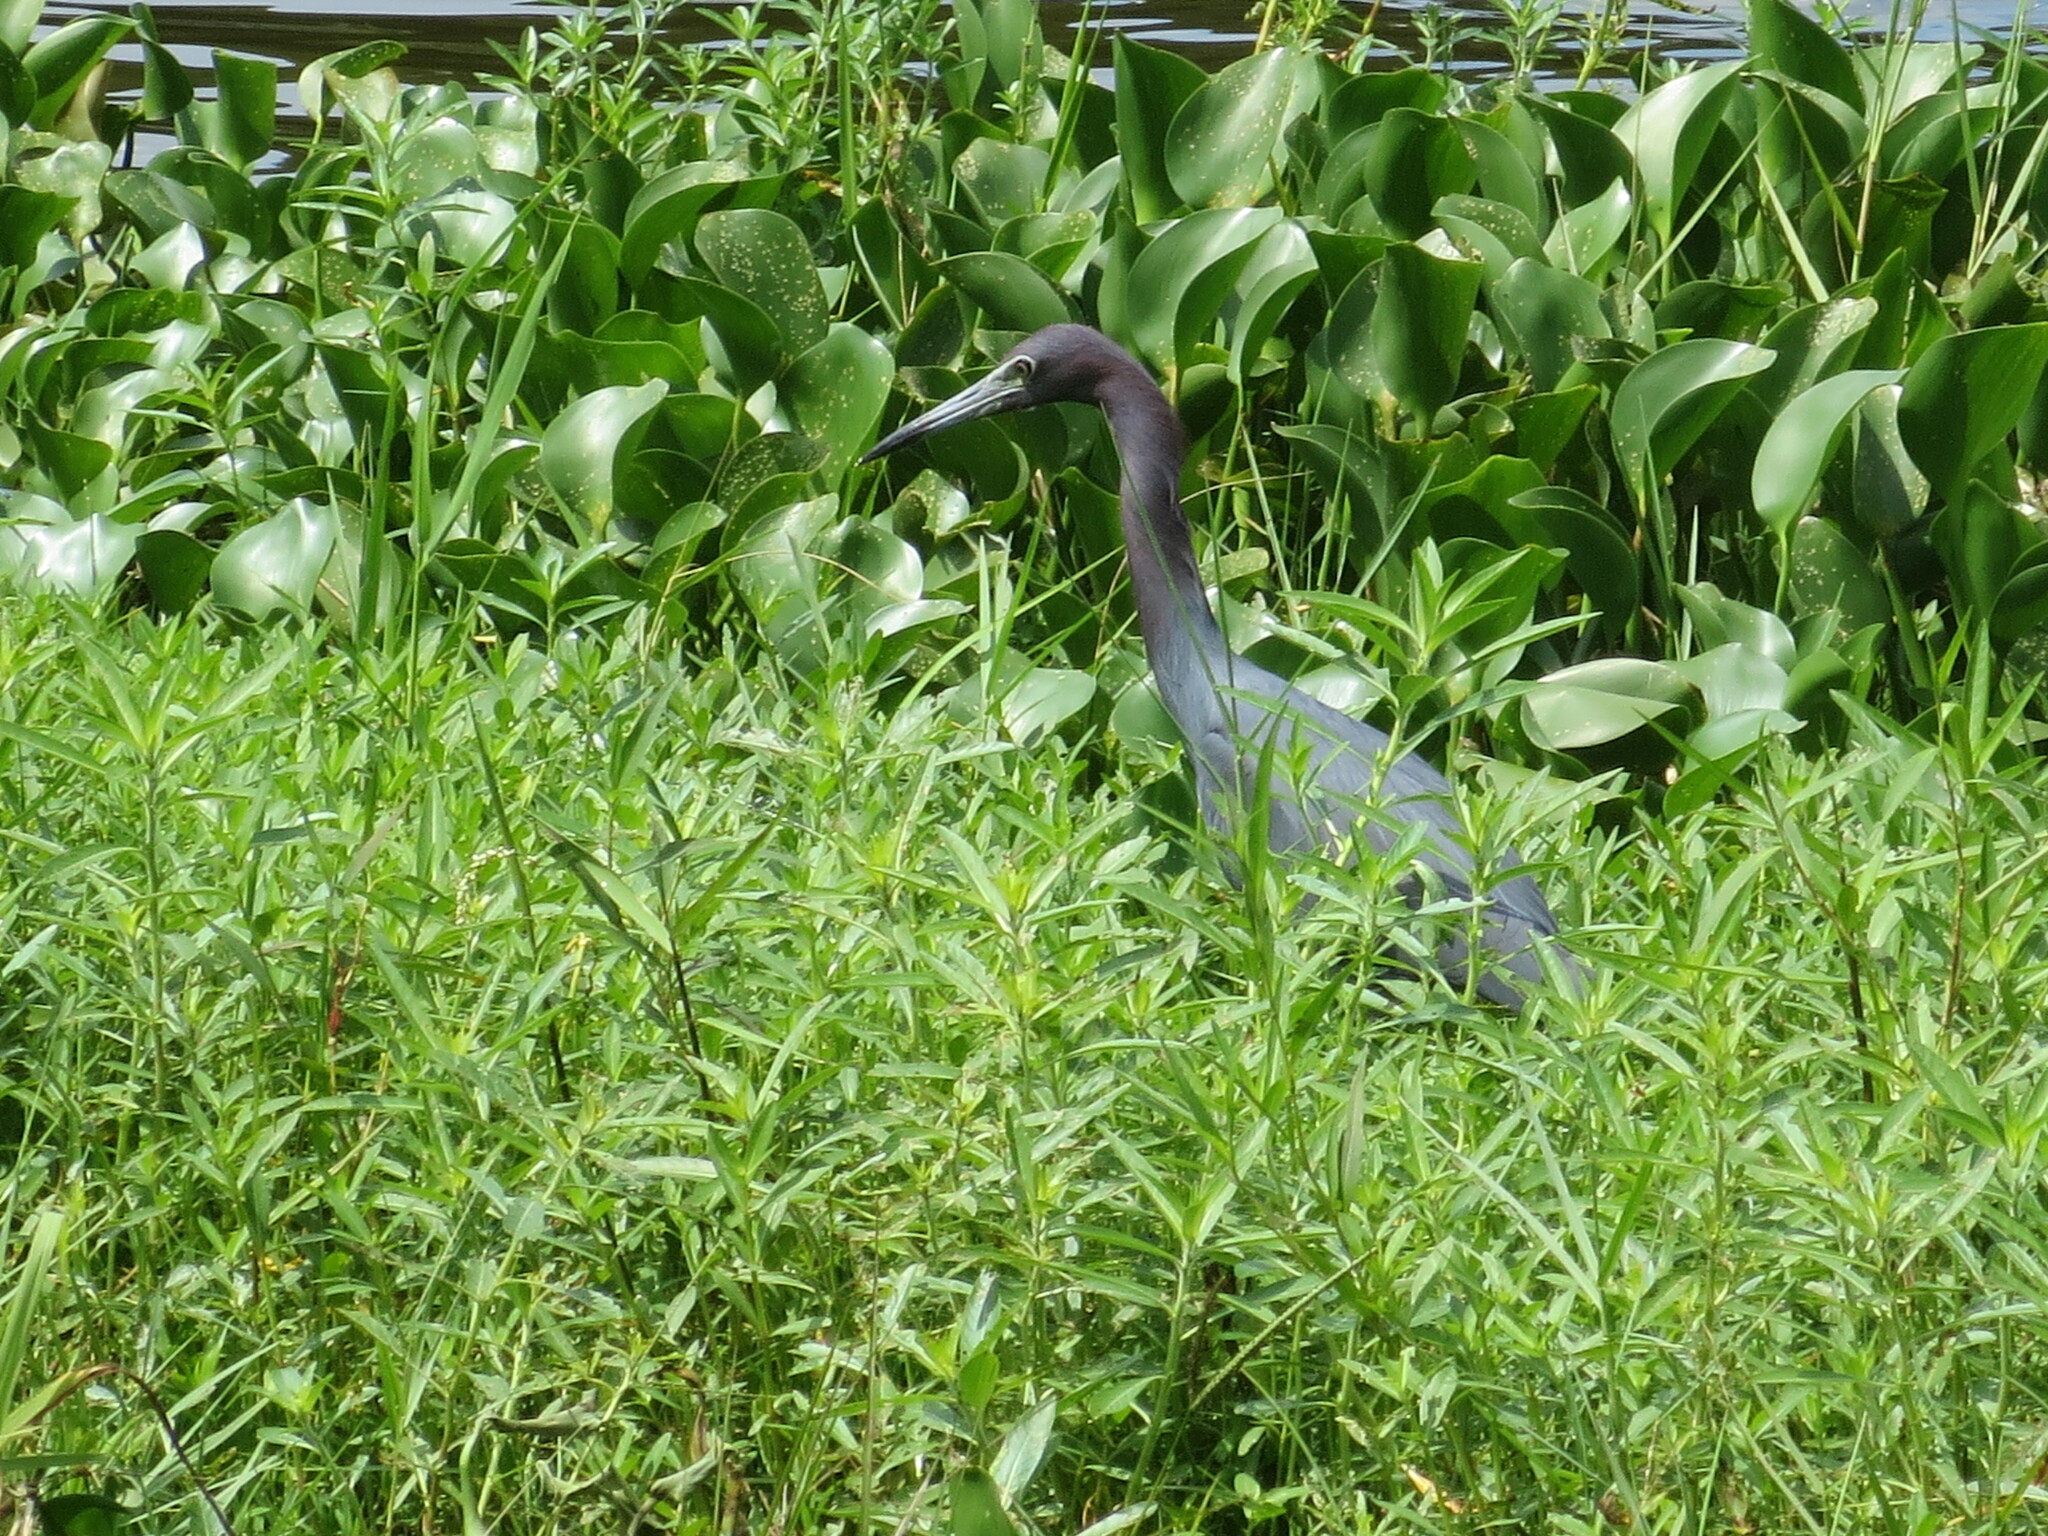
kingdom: Animalia
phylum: Chordata
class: Aves
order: Pelecaniformes
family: Ardeidae
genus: Egretta
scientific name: Egretta caerulea
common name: Little blue heron
